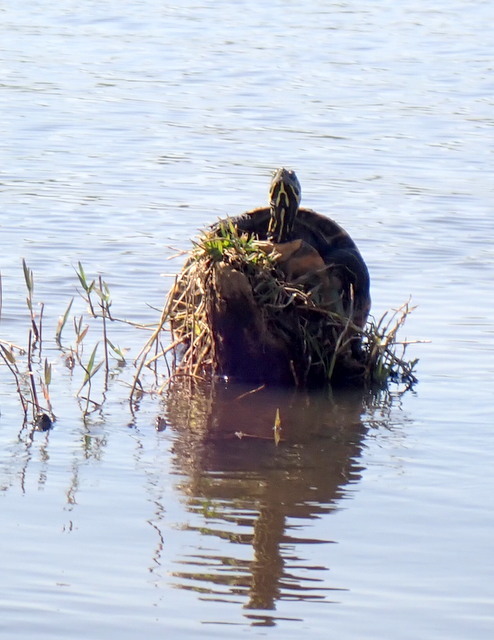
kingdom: Animalia
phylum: Chordata
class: Testudines
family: Emydidae
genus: Pseudemys
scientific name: Pseudemys concinna
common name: Eastern river cooter
